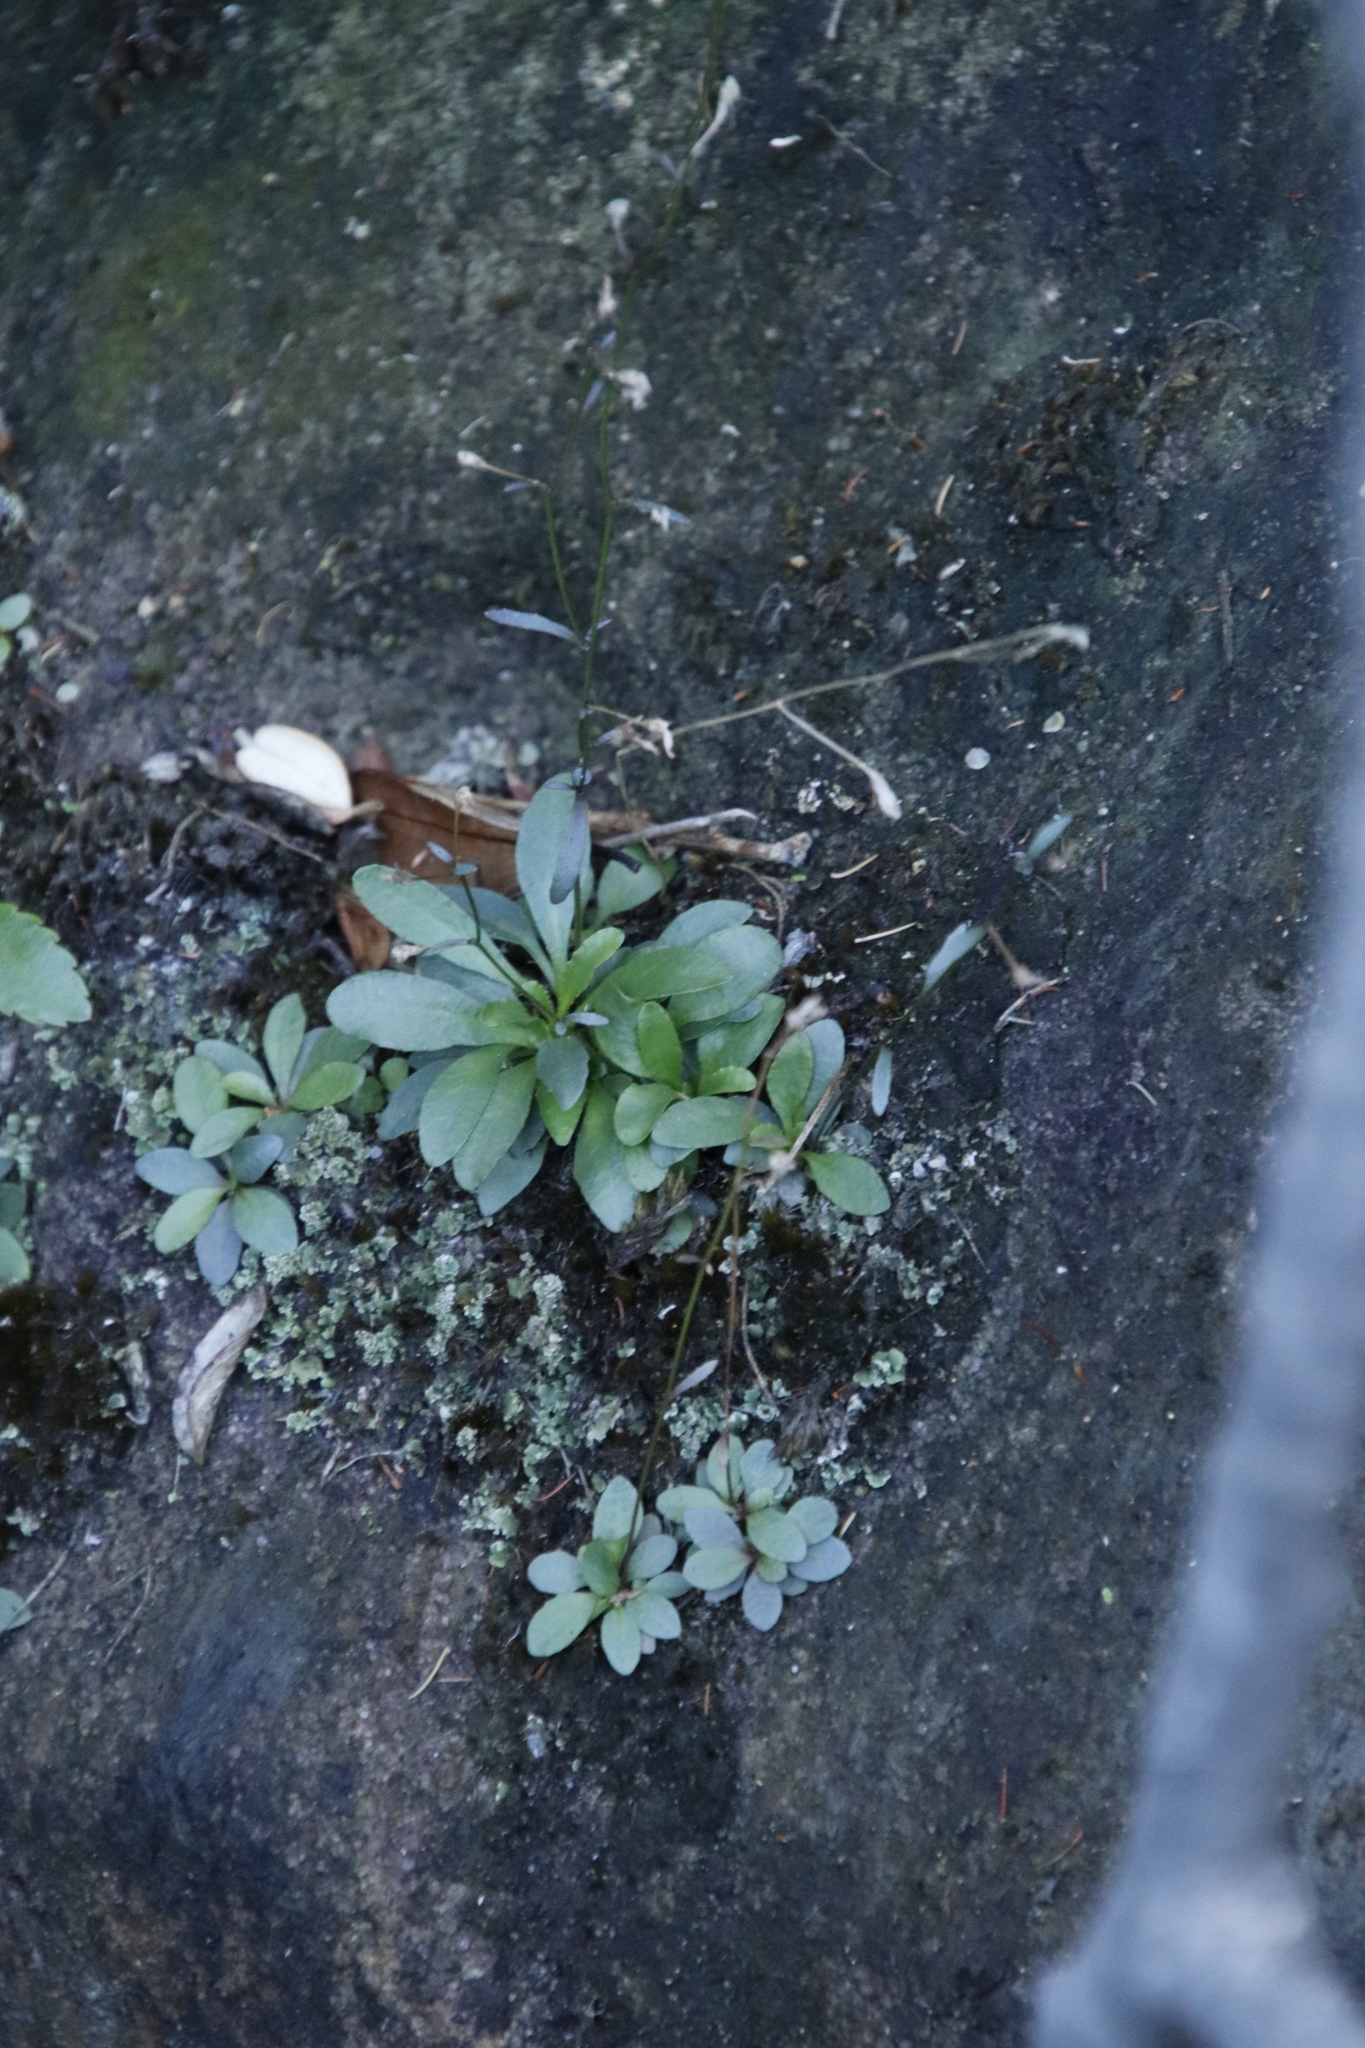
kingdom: Plantae
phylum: Tracheophyta
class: Magnoliopsida
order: Asterales
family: Campanulaceae
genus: Wimmerella
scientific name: Wimmerella arabidea
